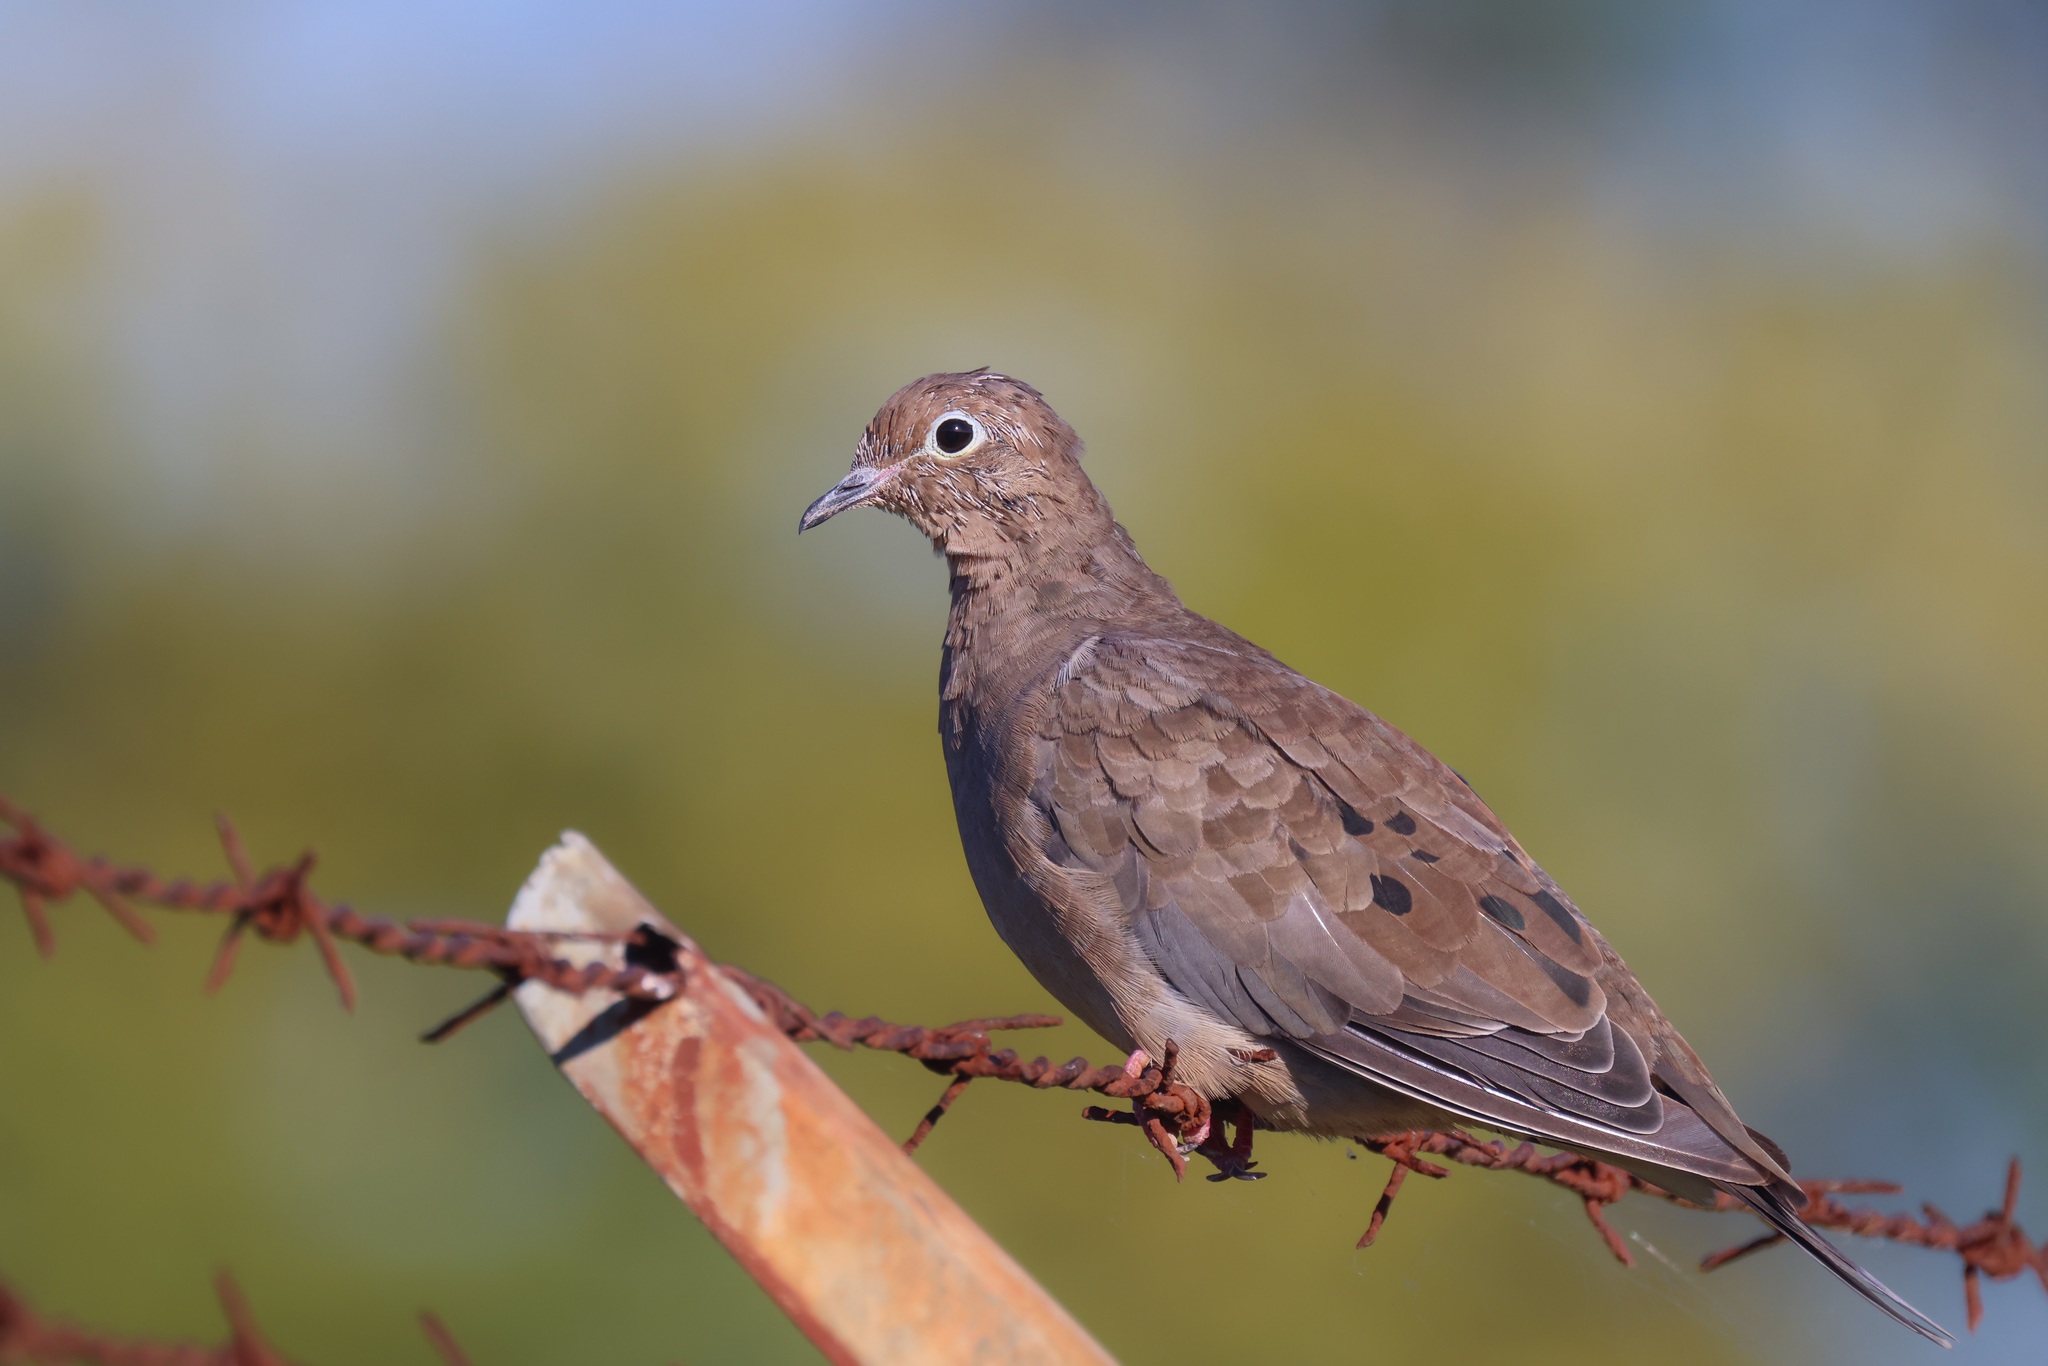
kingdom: Animalia
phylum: Chordata
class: Aves
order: Columbiformes
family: Columbidae
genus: Zenaida
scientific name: Zenaida macroura
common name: Mourning dove
